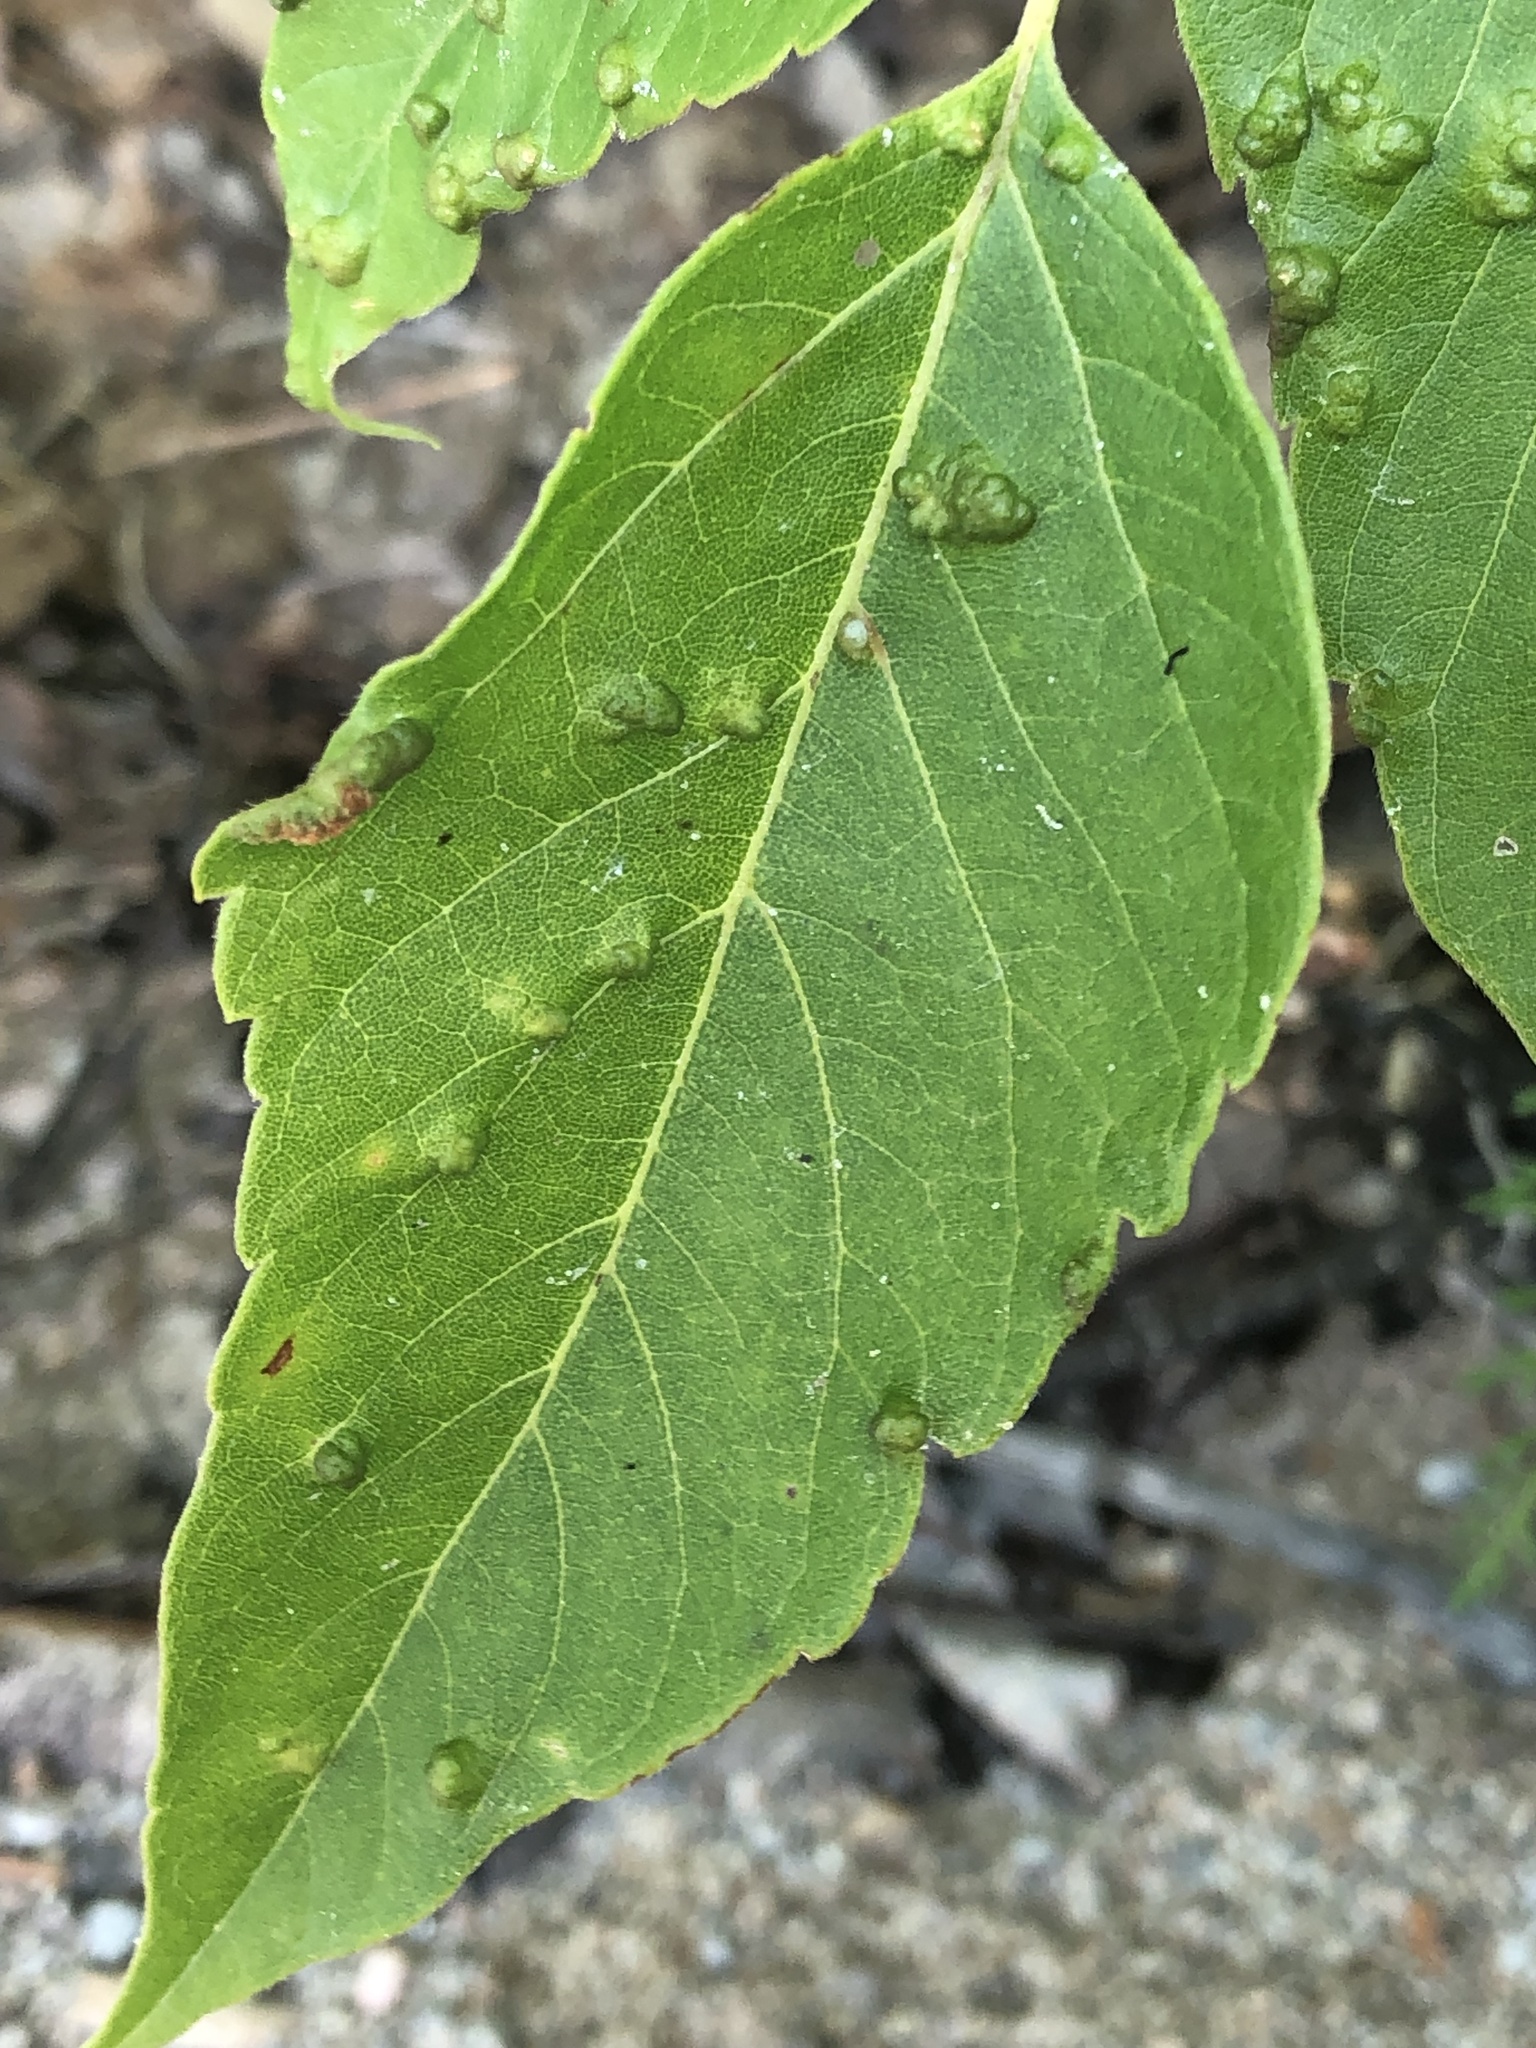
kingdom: Animalia
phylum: Arthropoda
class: Arachnida
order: Trombidiformes
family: Eriophyidae
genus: Aceria
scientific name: Aceria
